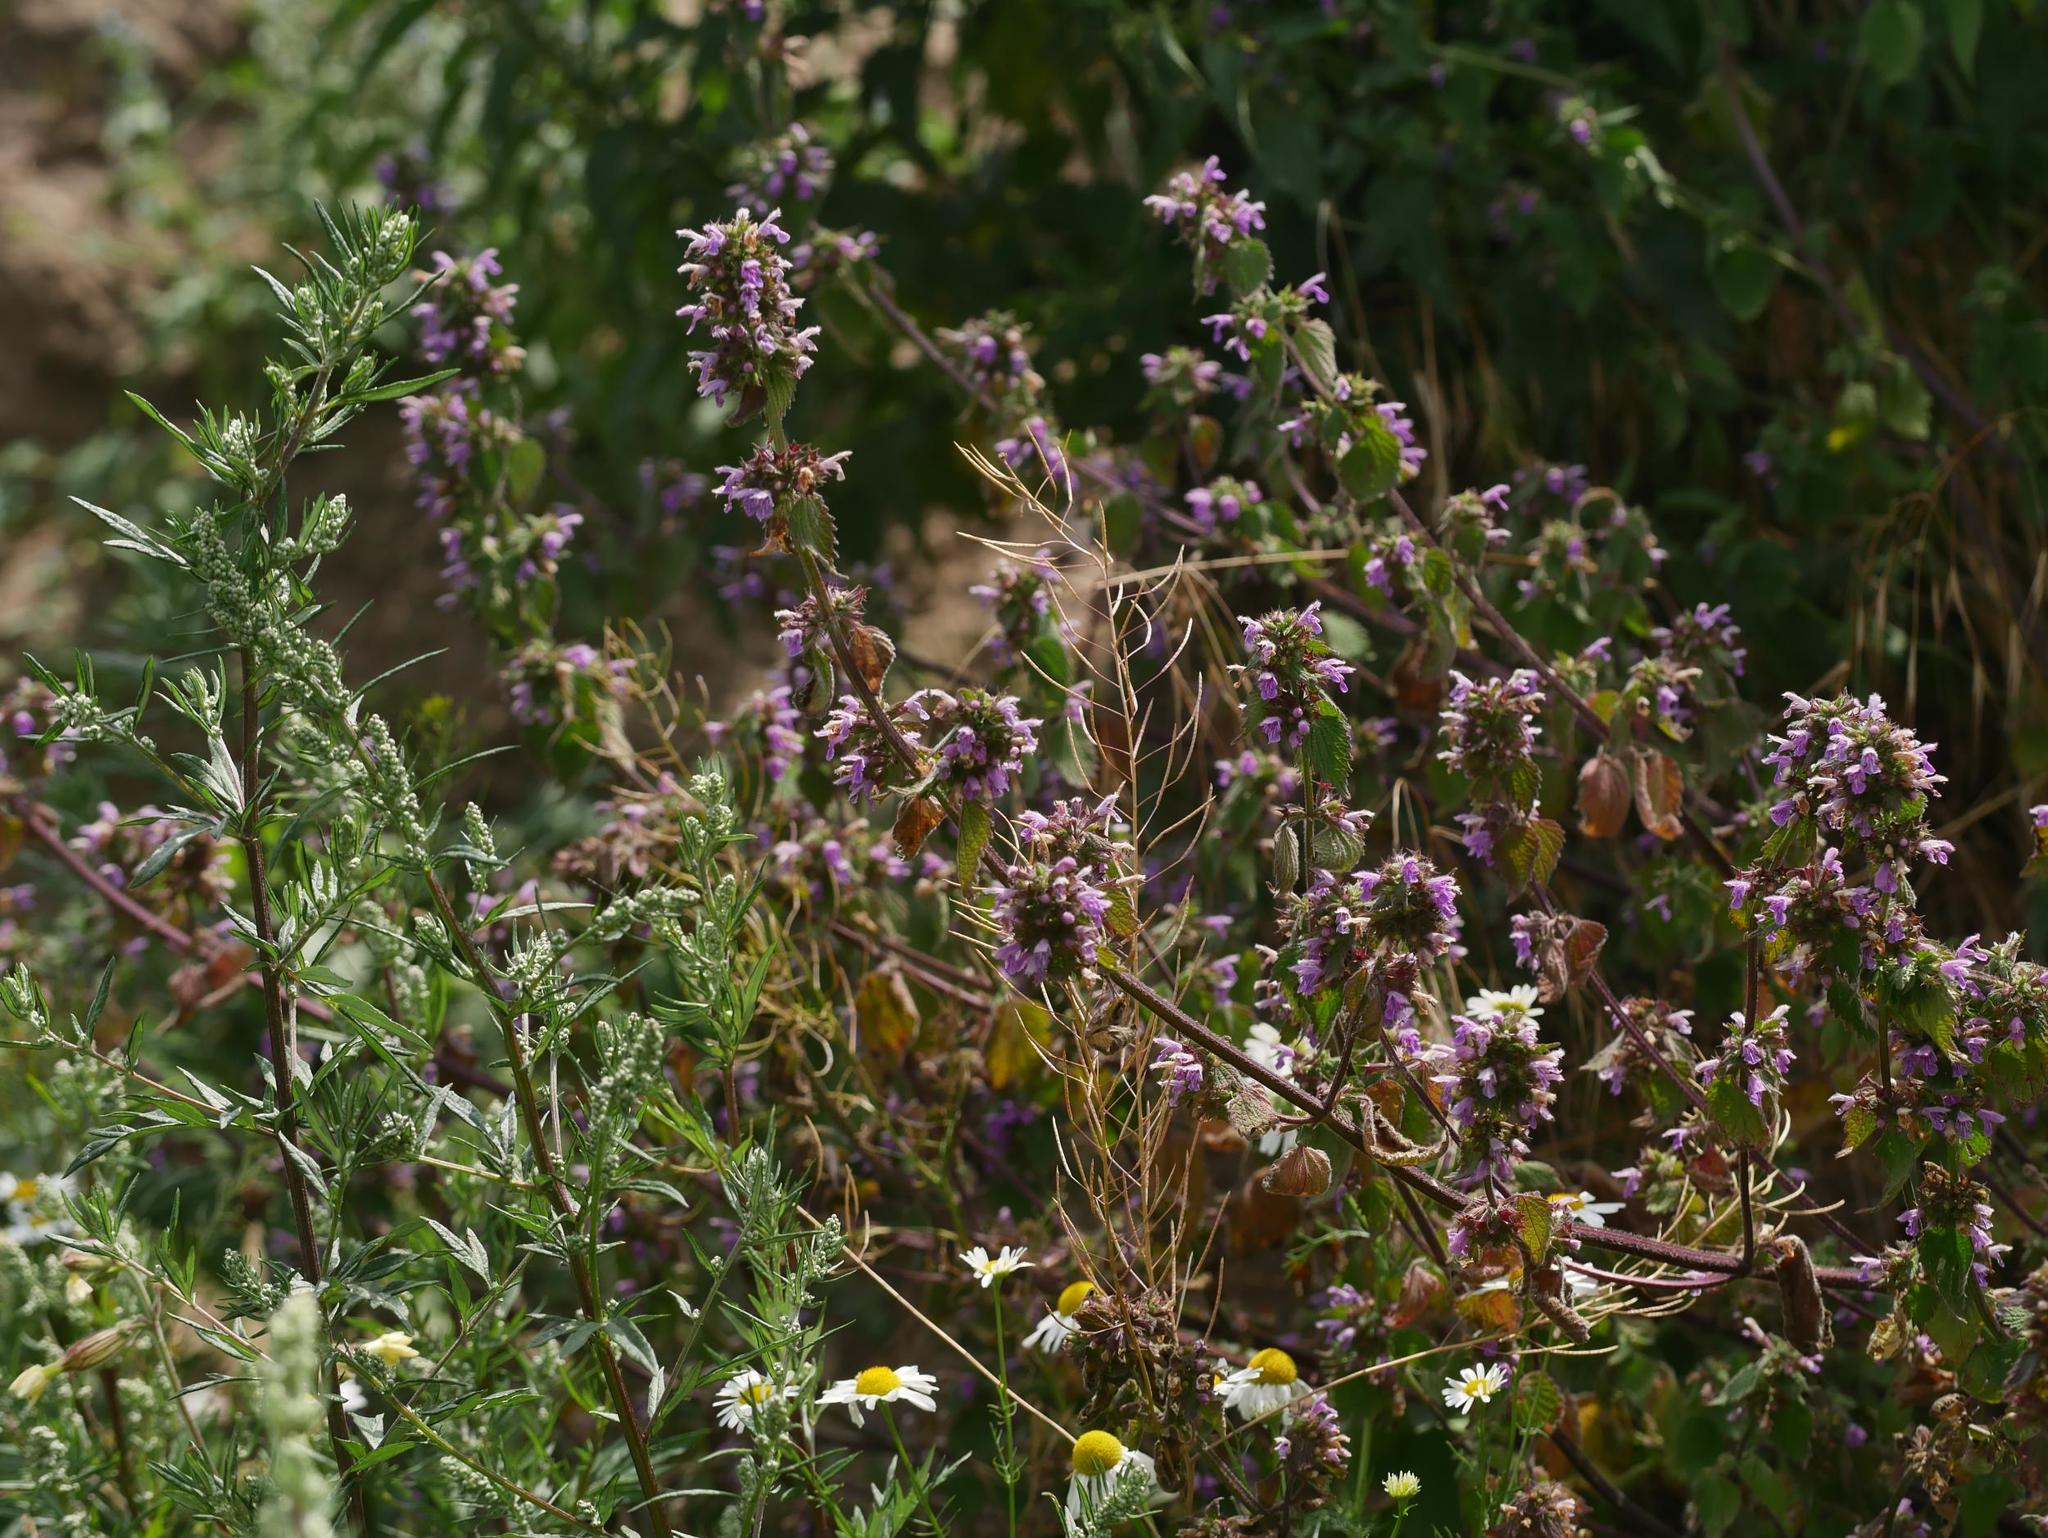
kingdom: Plantae
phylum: Tracheophyta
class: Magnoliopsida
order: Lamiales
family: Lamiaceae
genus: Ballota
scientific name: Ballota nigra
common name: Black horehound
